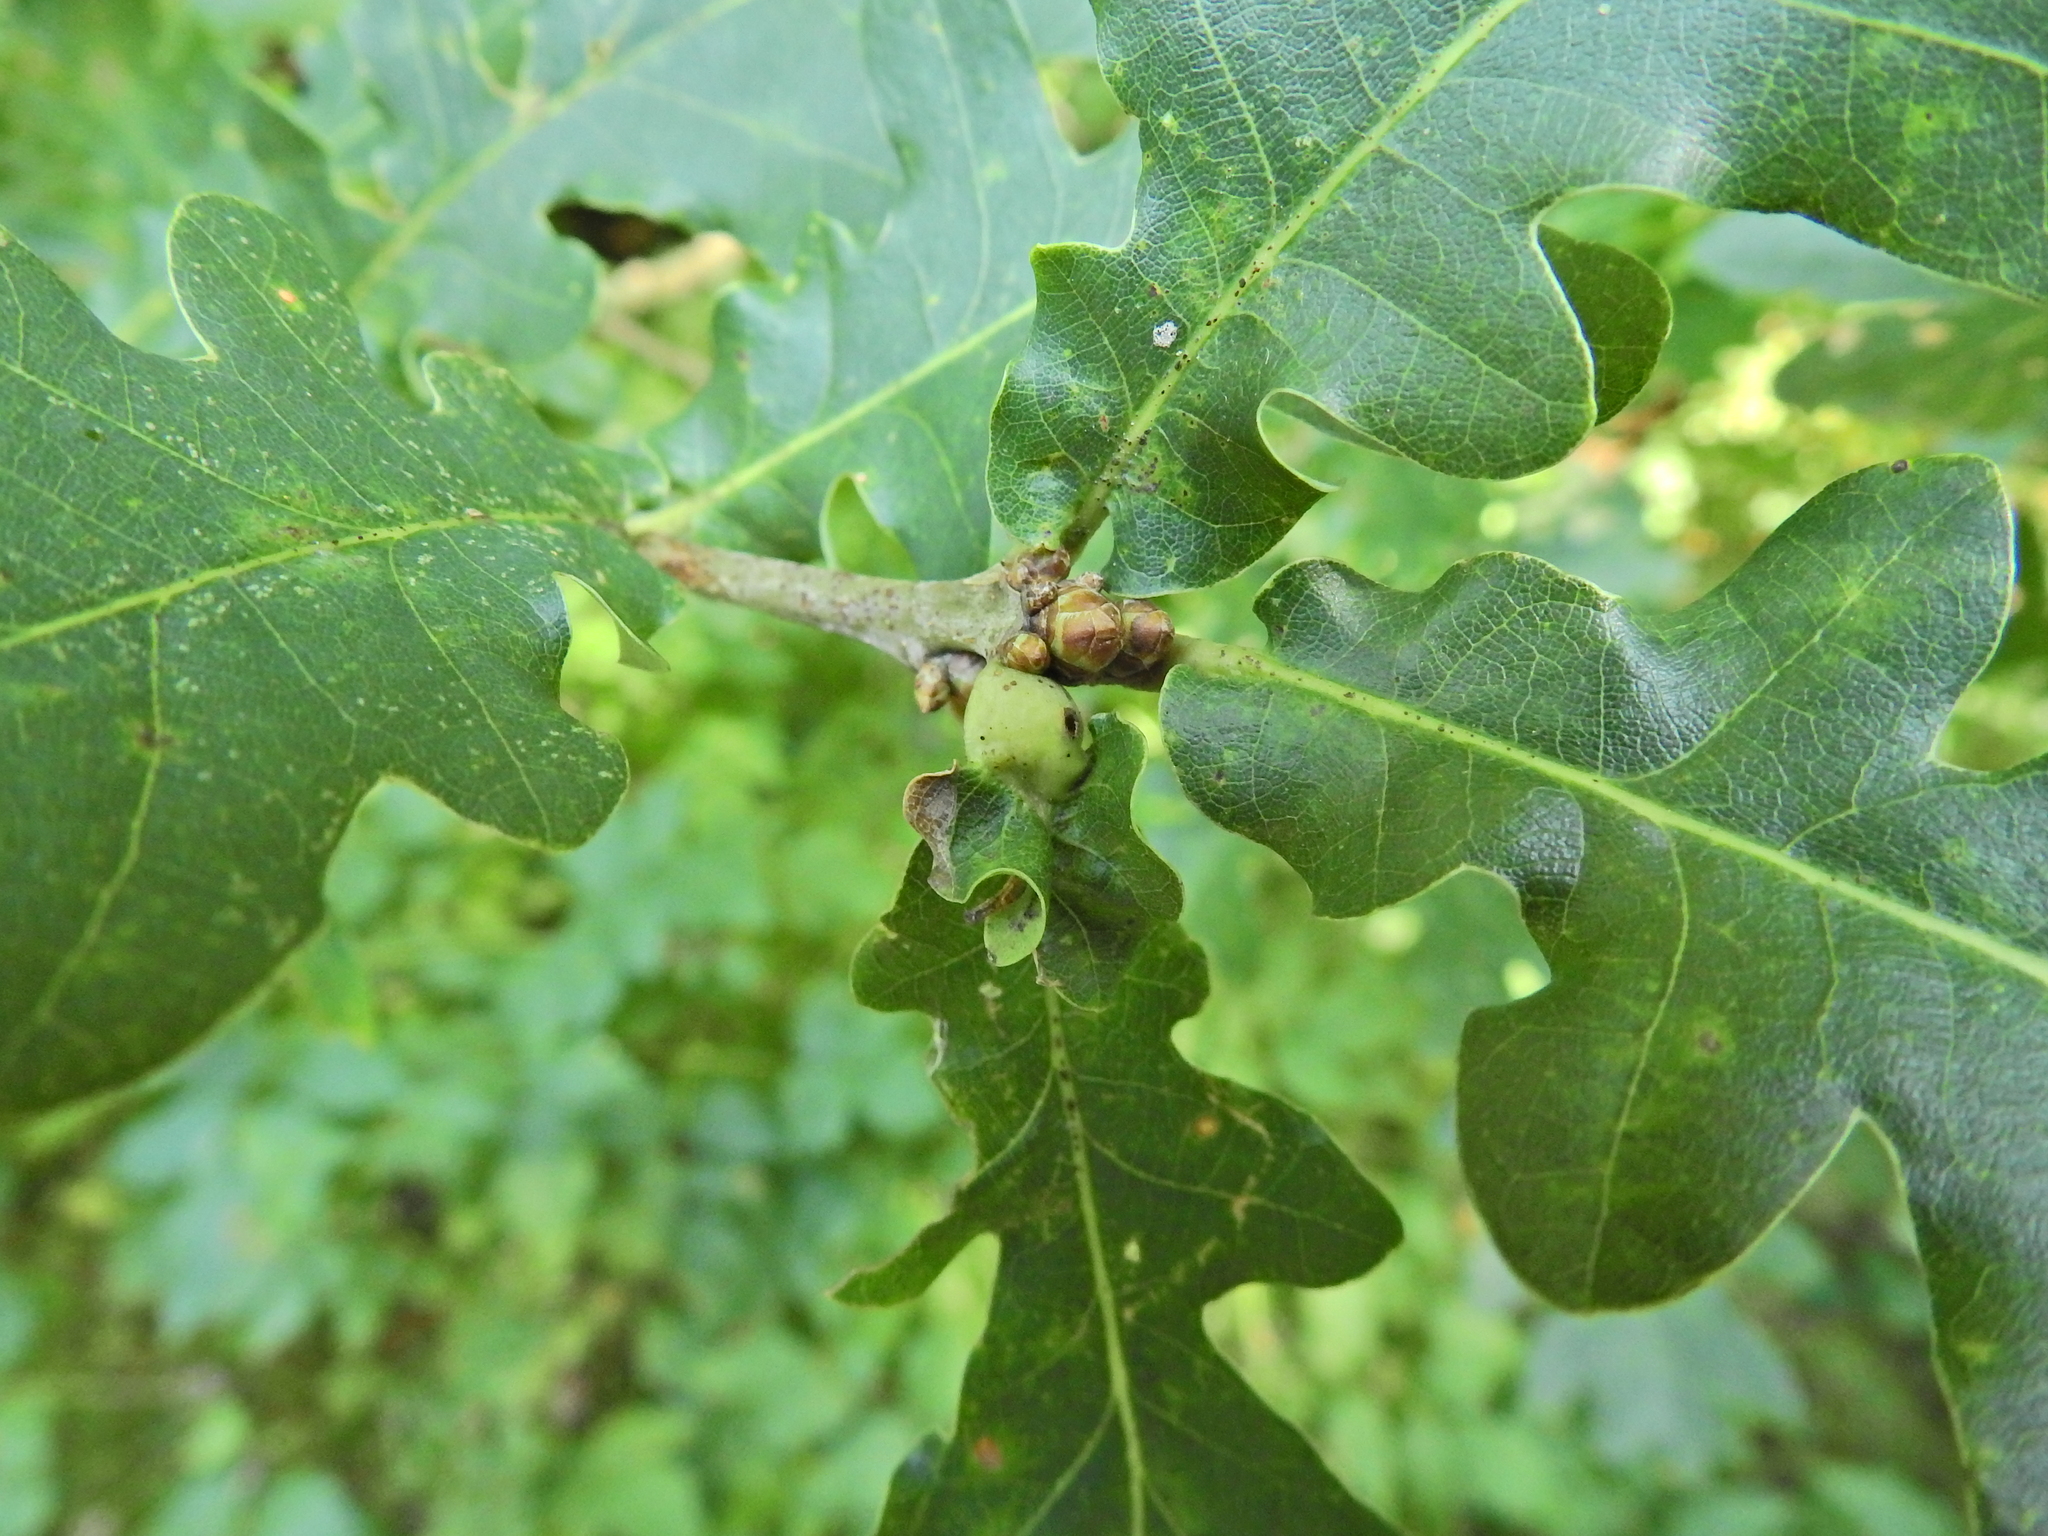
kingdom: Animalia
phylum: Arthropoda
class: Insecta
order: Hymenoptera
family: Cynipidae
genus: Andricus
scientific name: Andricus curvator
